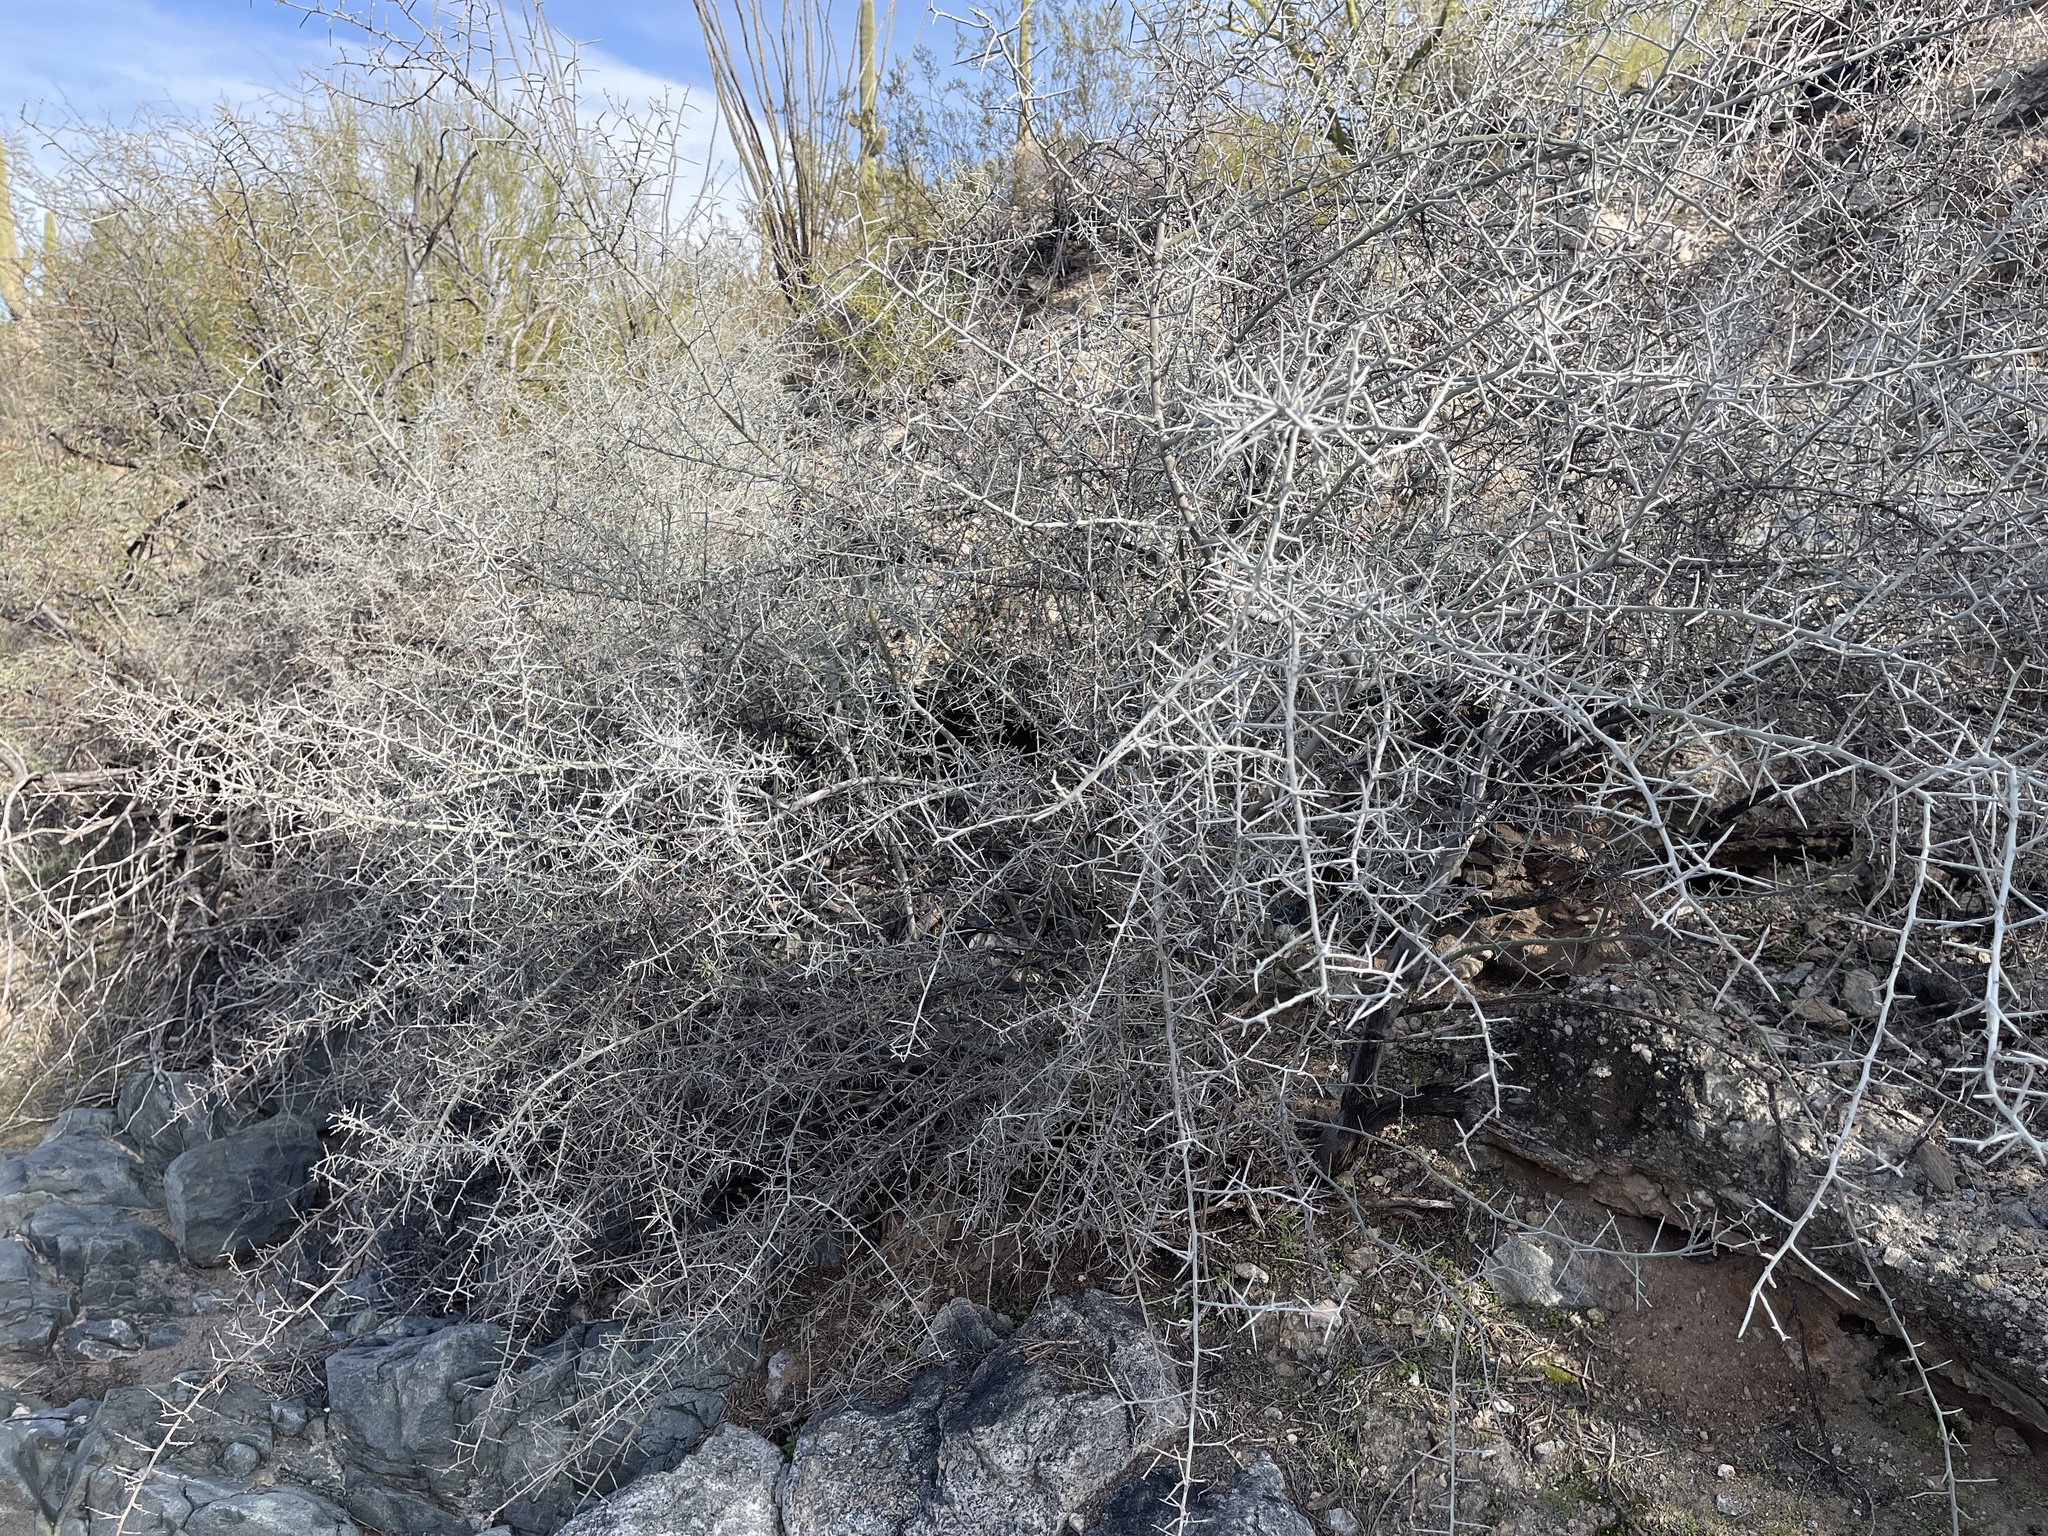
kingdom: Plantae
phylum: Tracheophyta
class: Magnoliopsida
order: Rosales
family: Rhamnaceae
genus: Sarcomphalus
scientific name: Sarcomphalus obtusifolius
